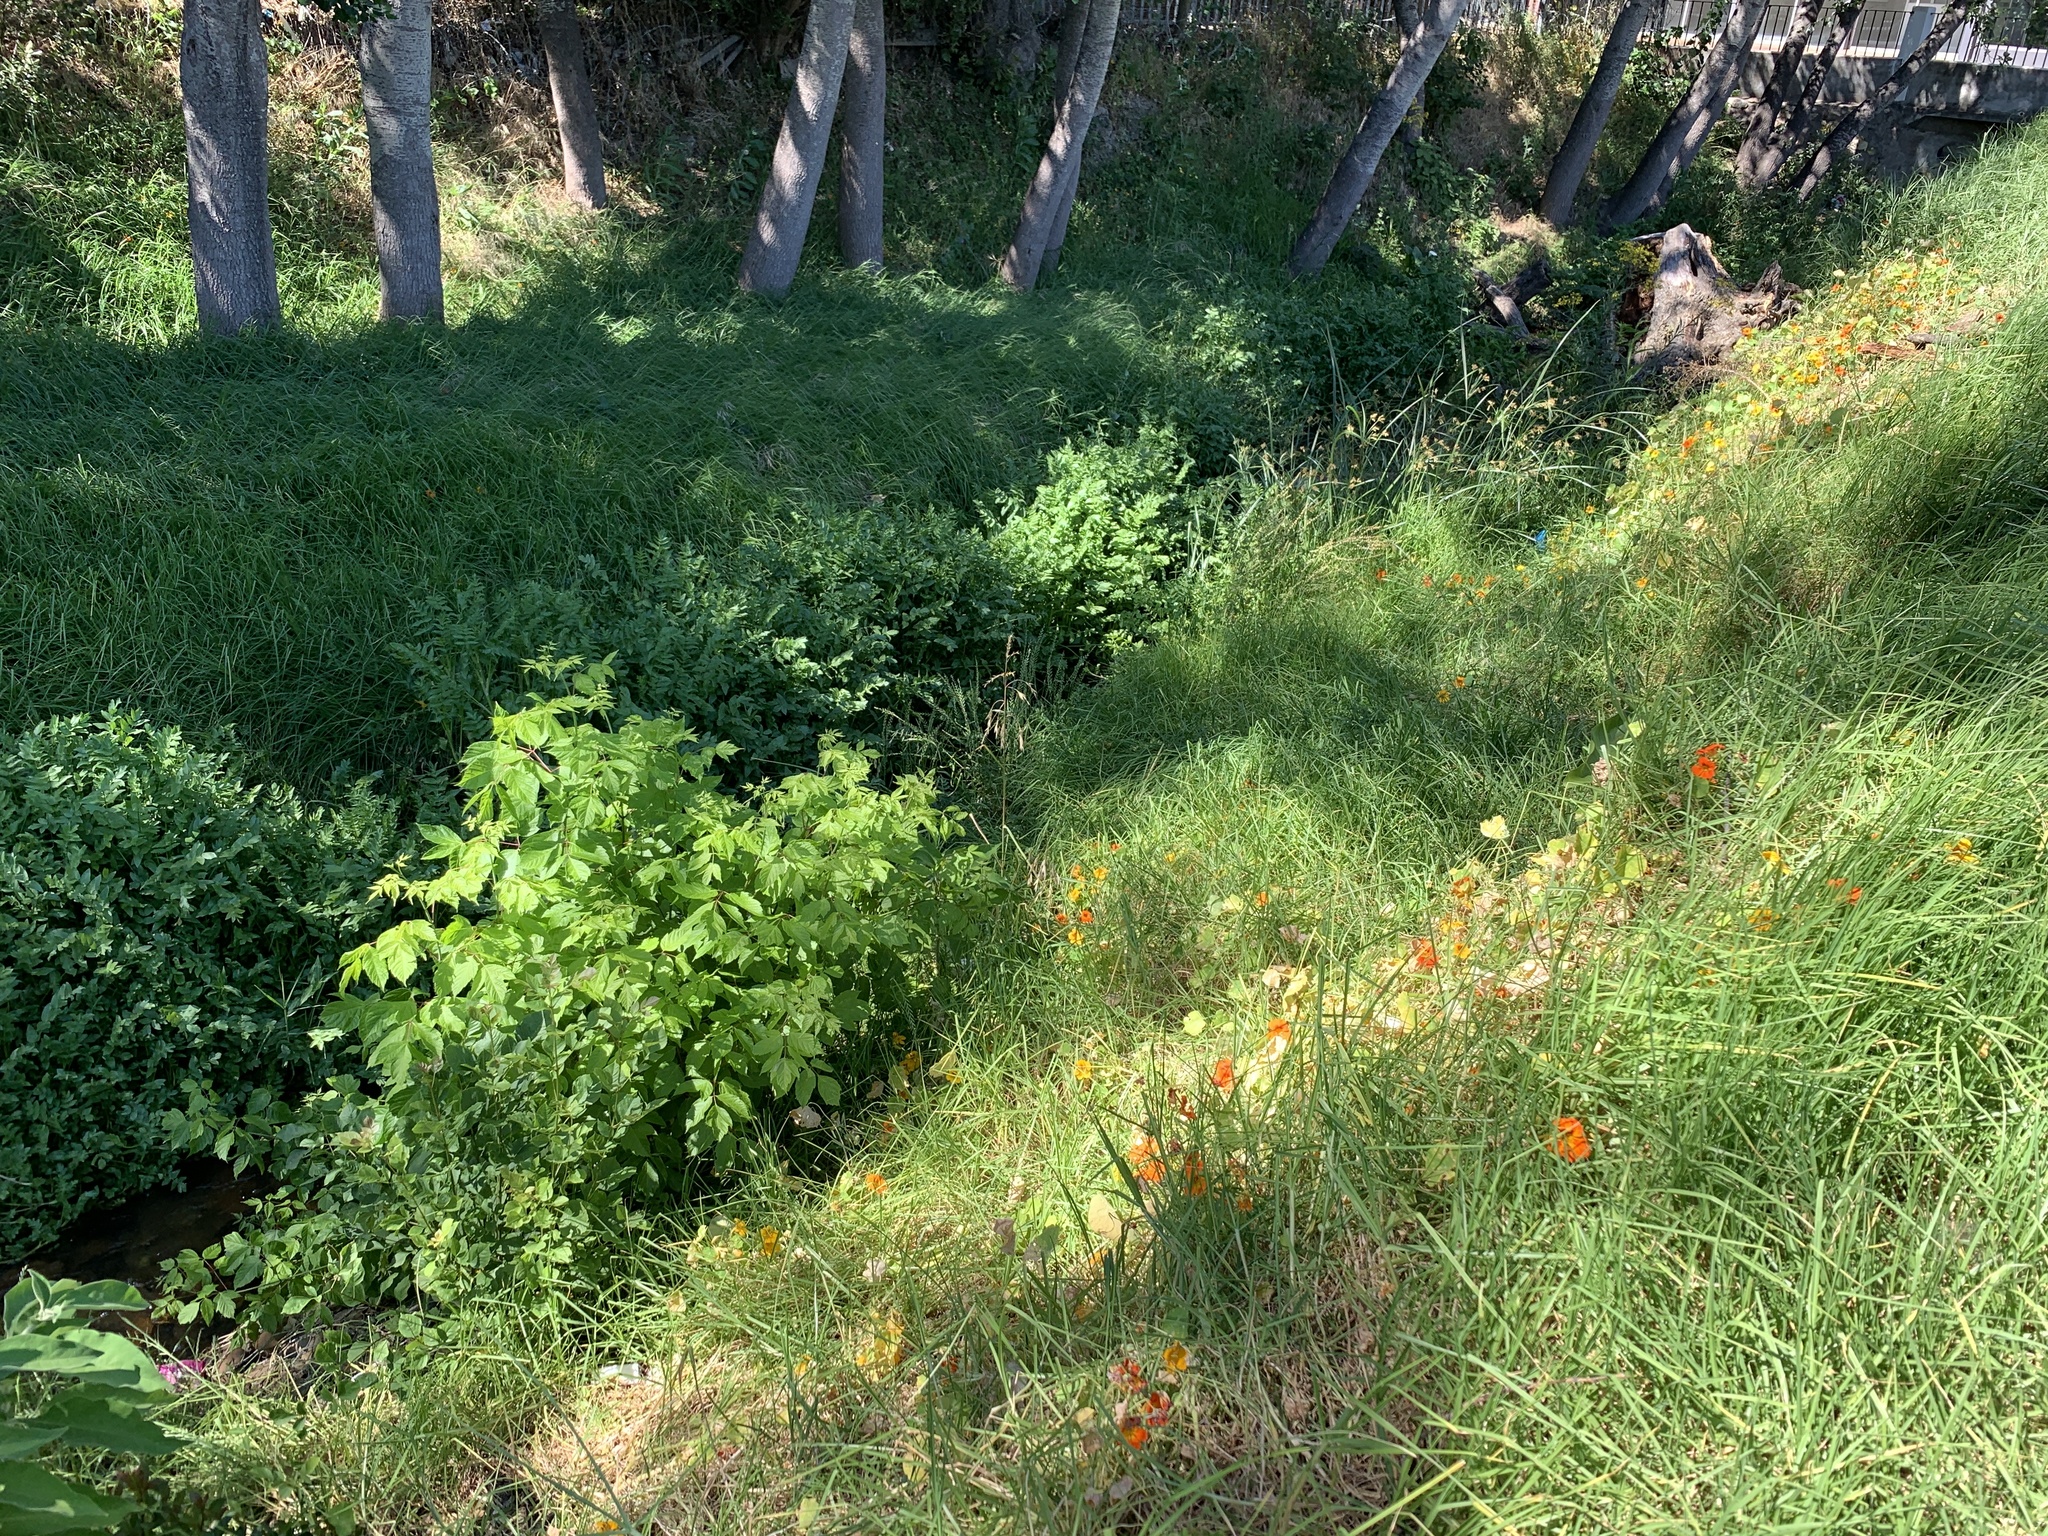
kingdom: Plantae
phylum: Tracheophyta
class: Magnoliopsida
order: Sapindales
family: Sapindaceae
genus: Acer
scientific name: Acer negundo
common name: Ashleaf maple
